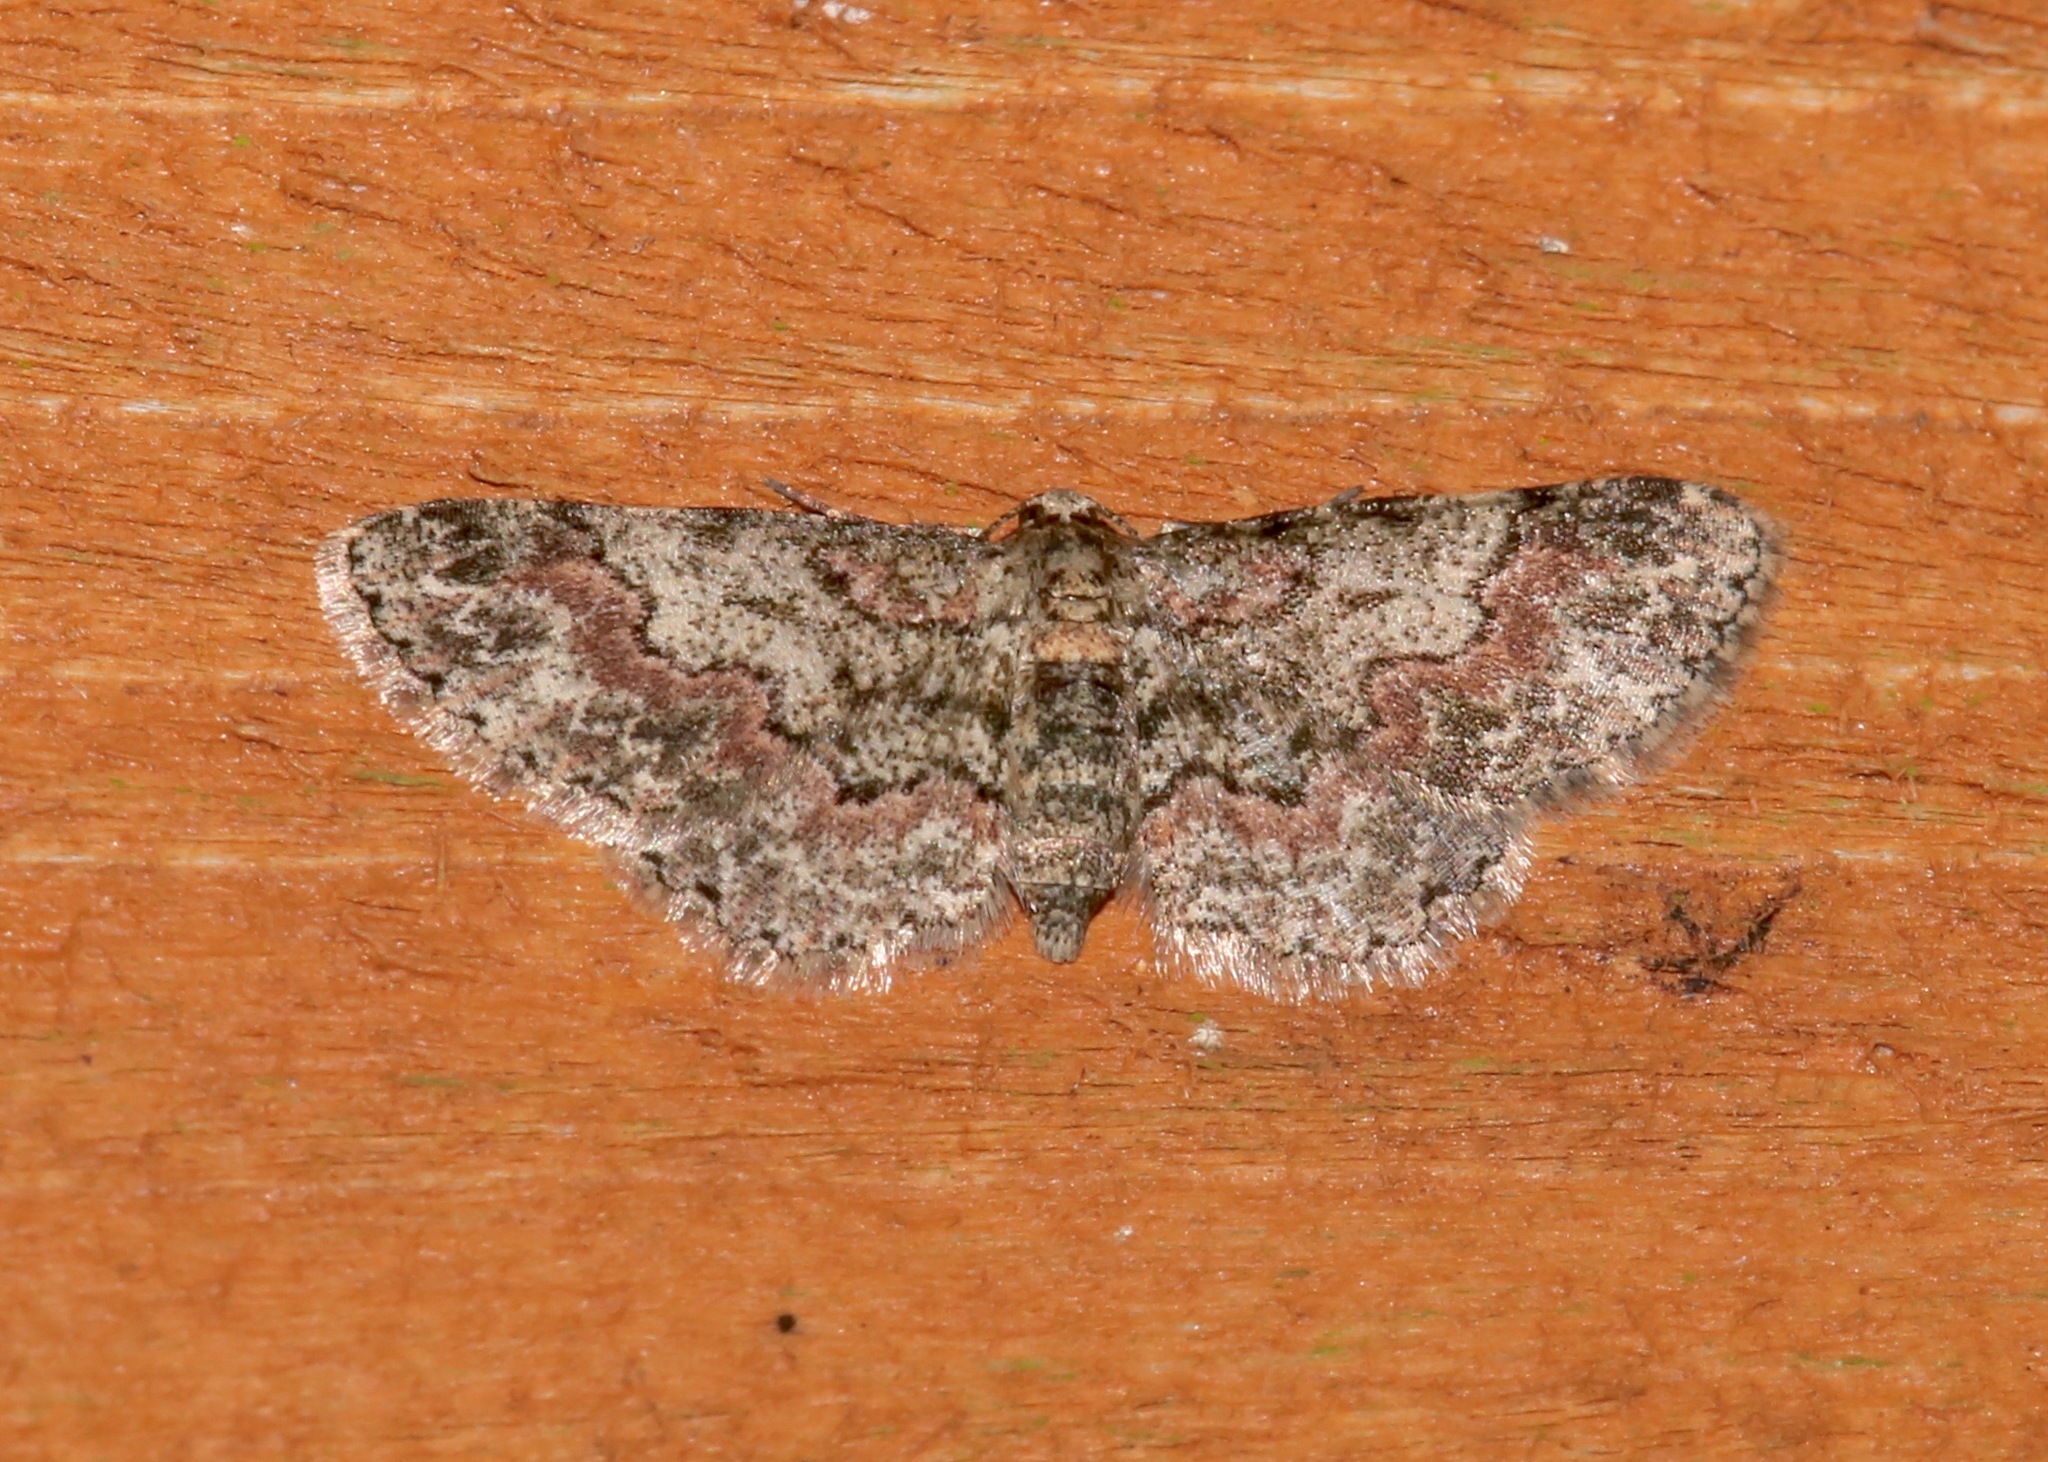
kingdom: Animalia
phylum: Arthropoda
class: Insecta
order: Lepidoptera
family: Geometridae
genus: Glenoides
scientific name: Glenoides texanaria
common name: Texas gray
